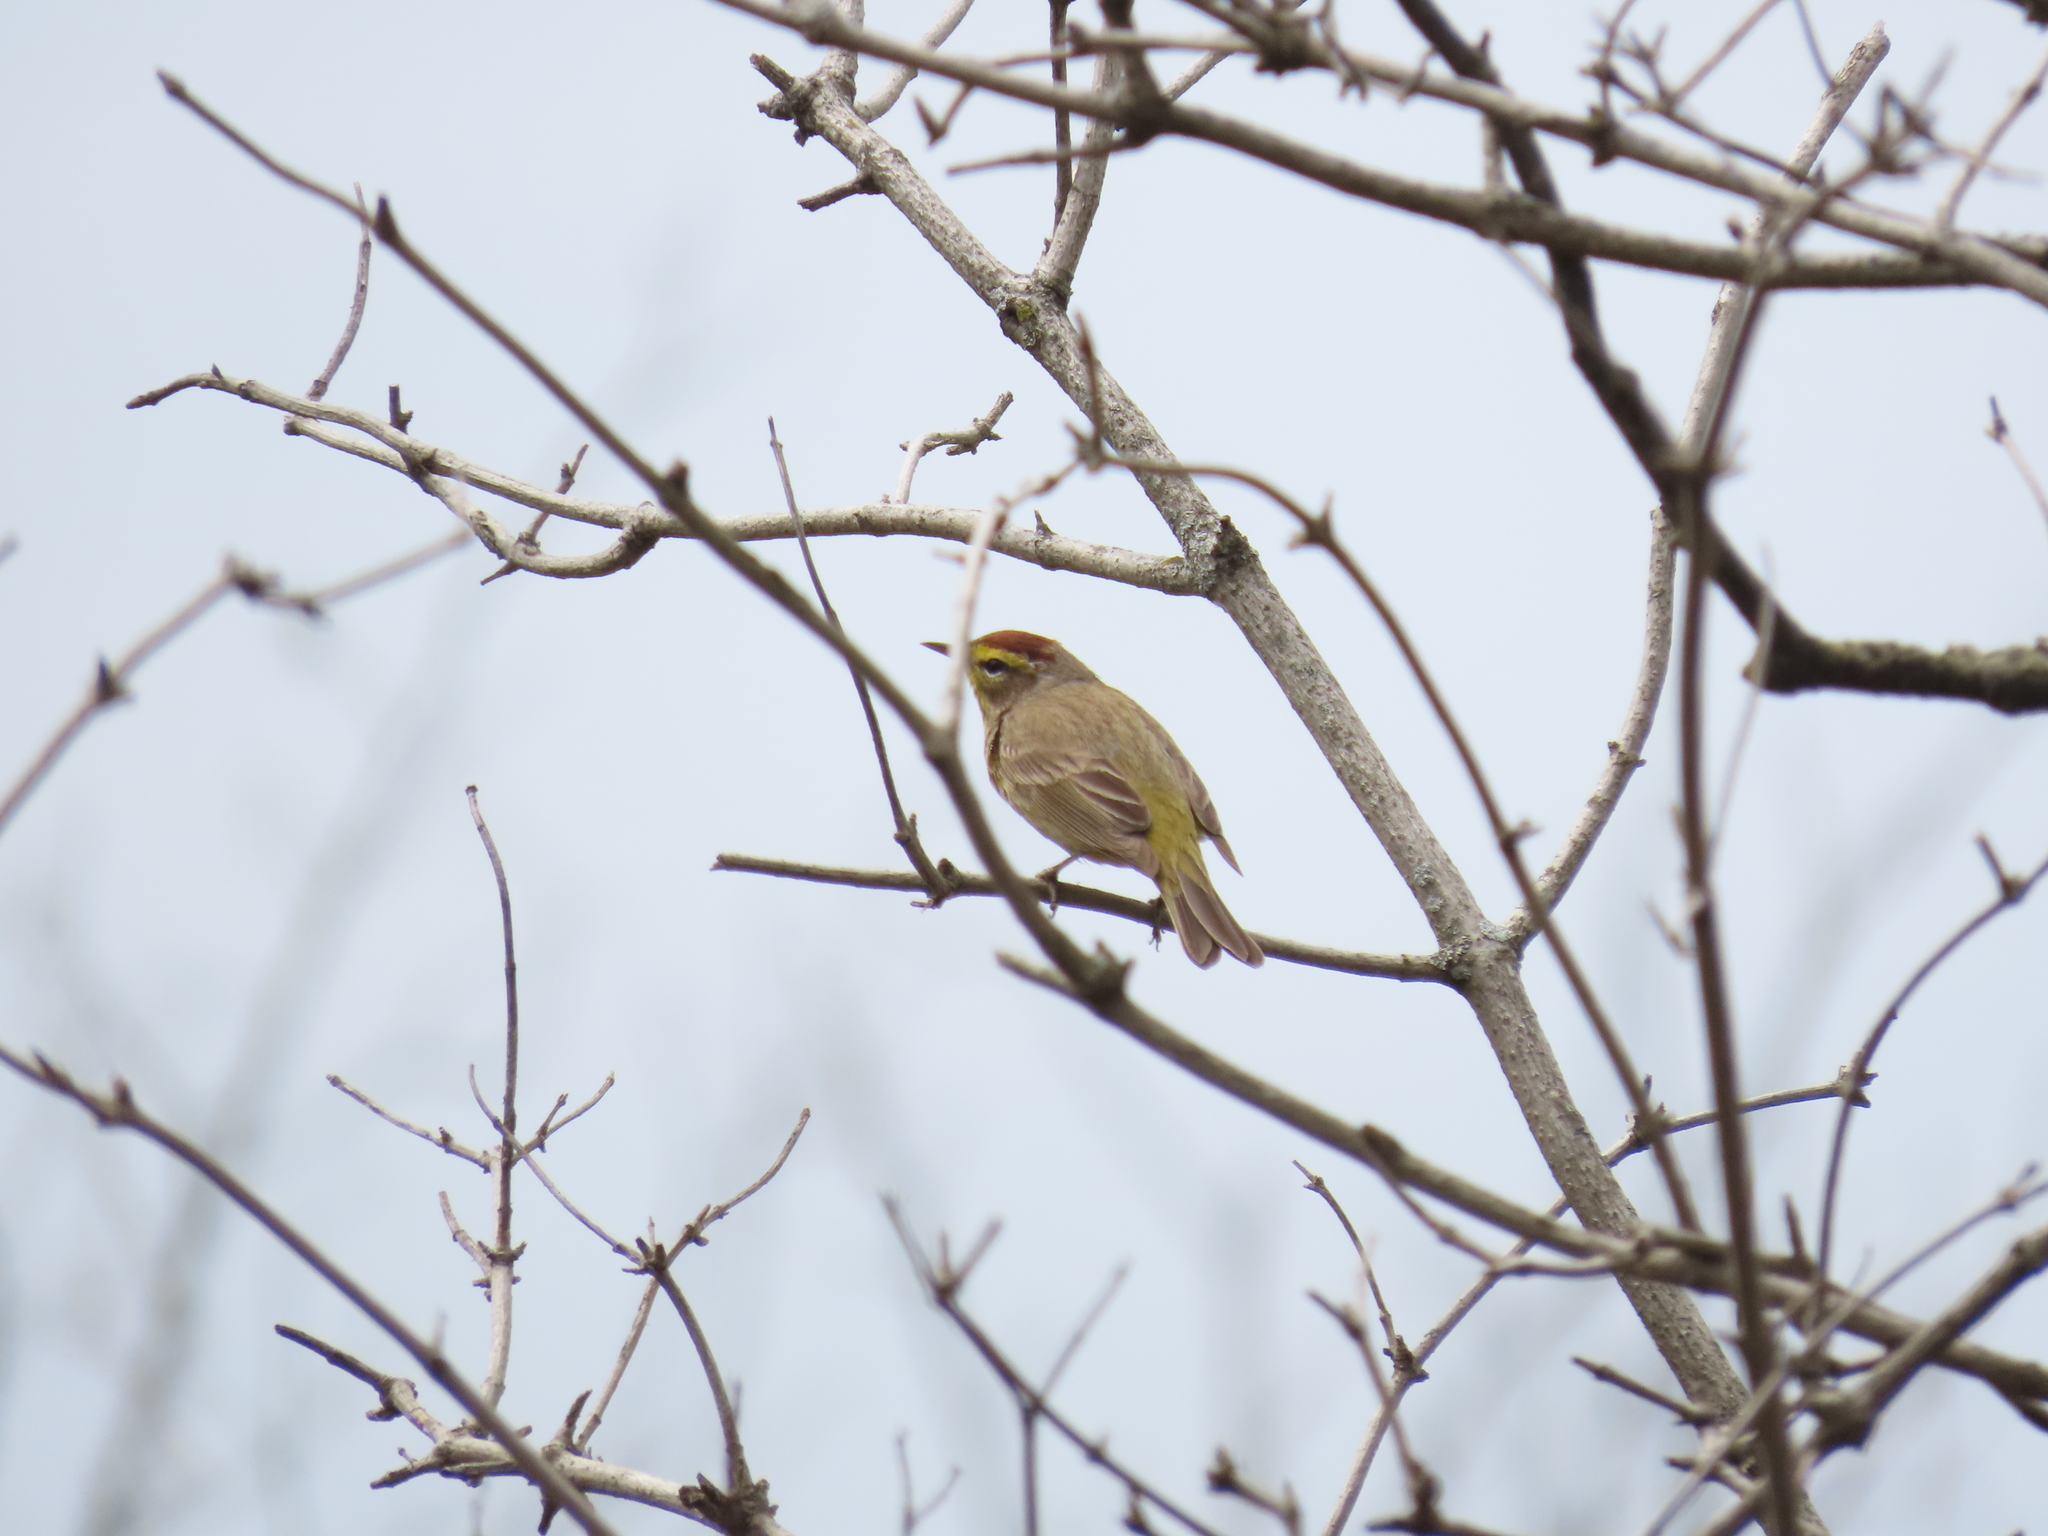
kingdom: Animalia
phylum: Chordata
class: Aves
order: Passeriformes
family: Parulidae
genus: Setophaga
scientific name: Setophaga palmarum
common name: Palm warbler
